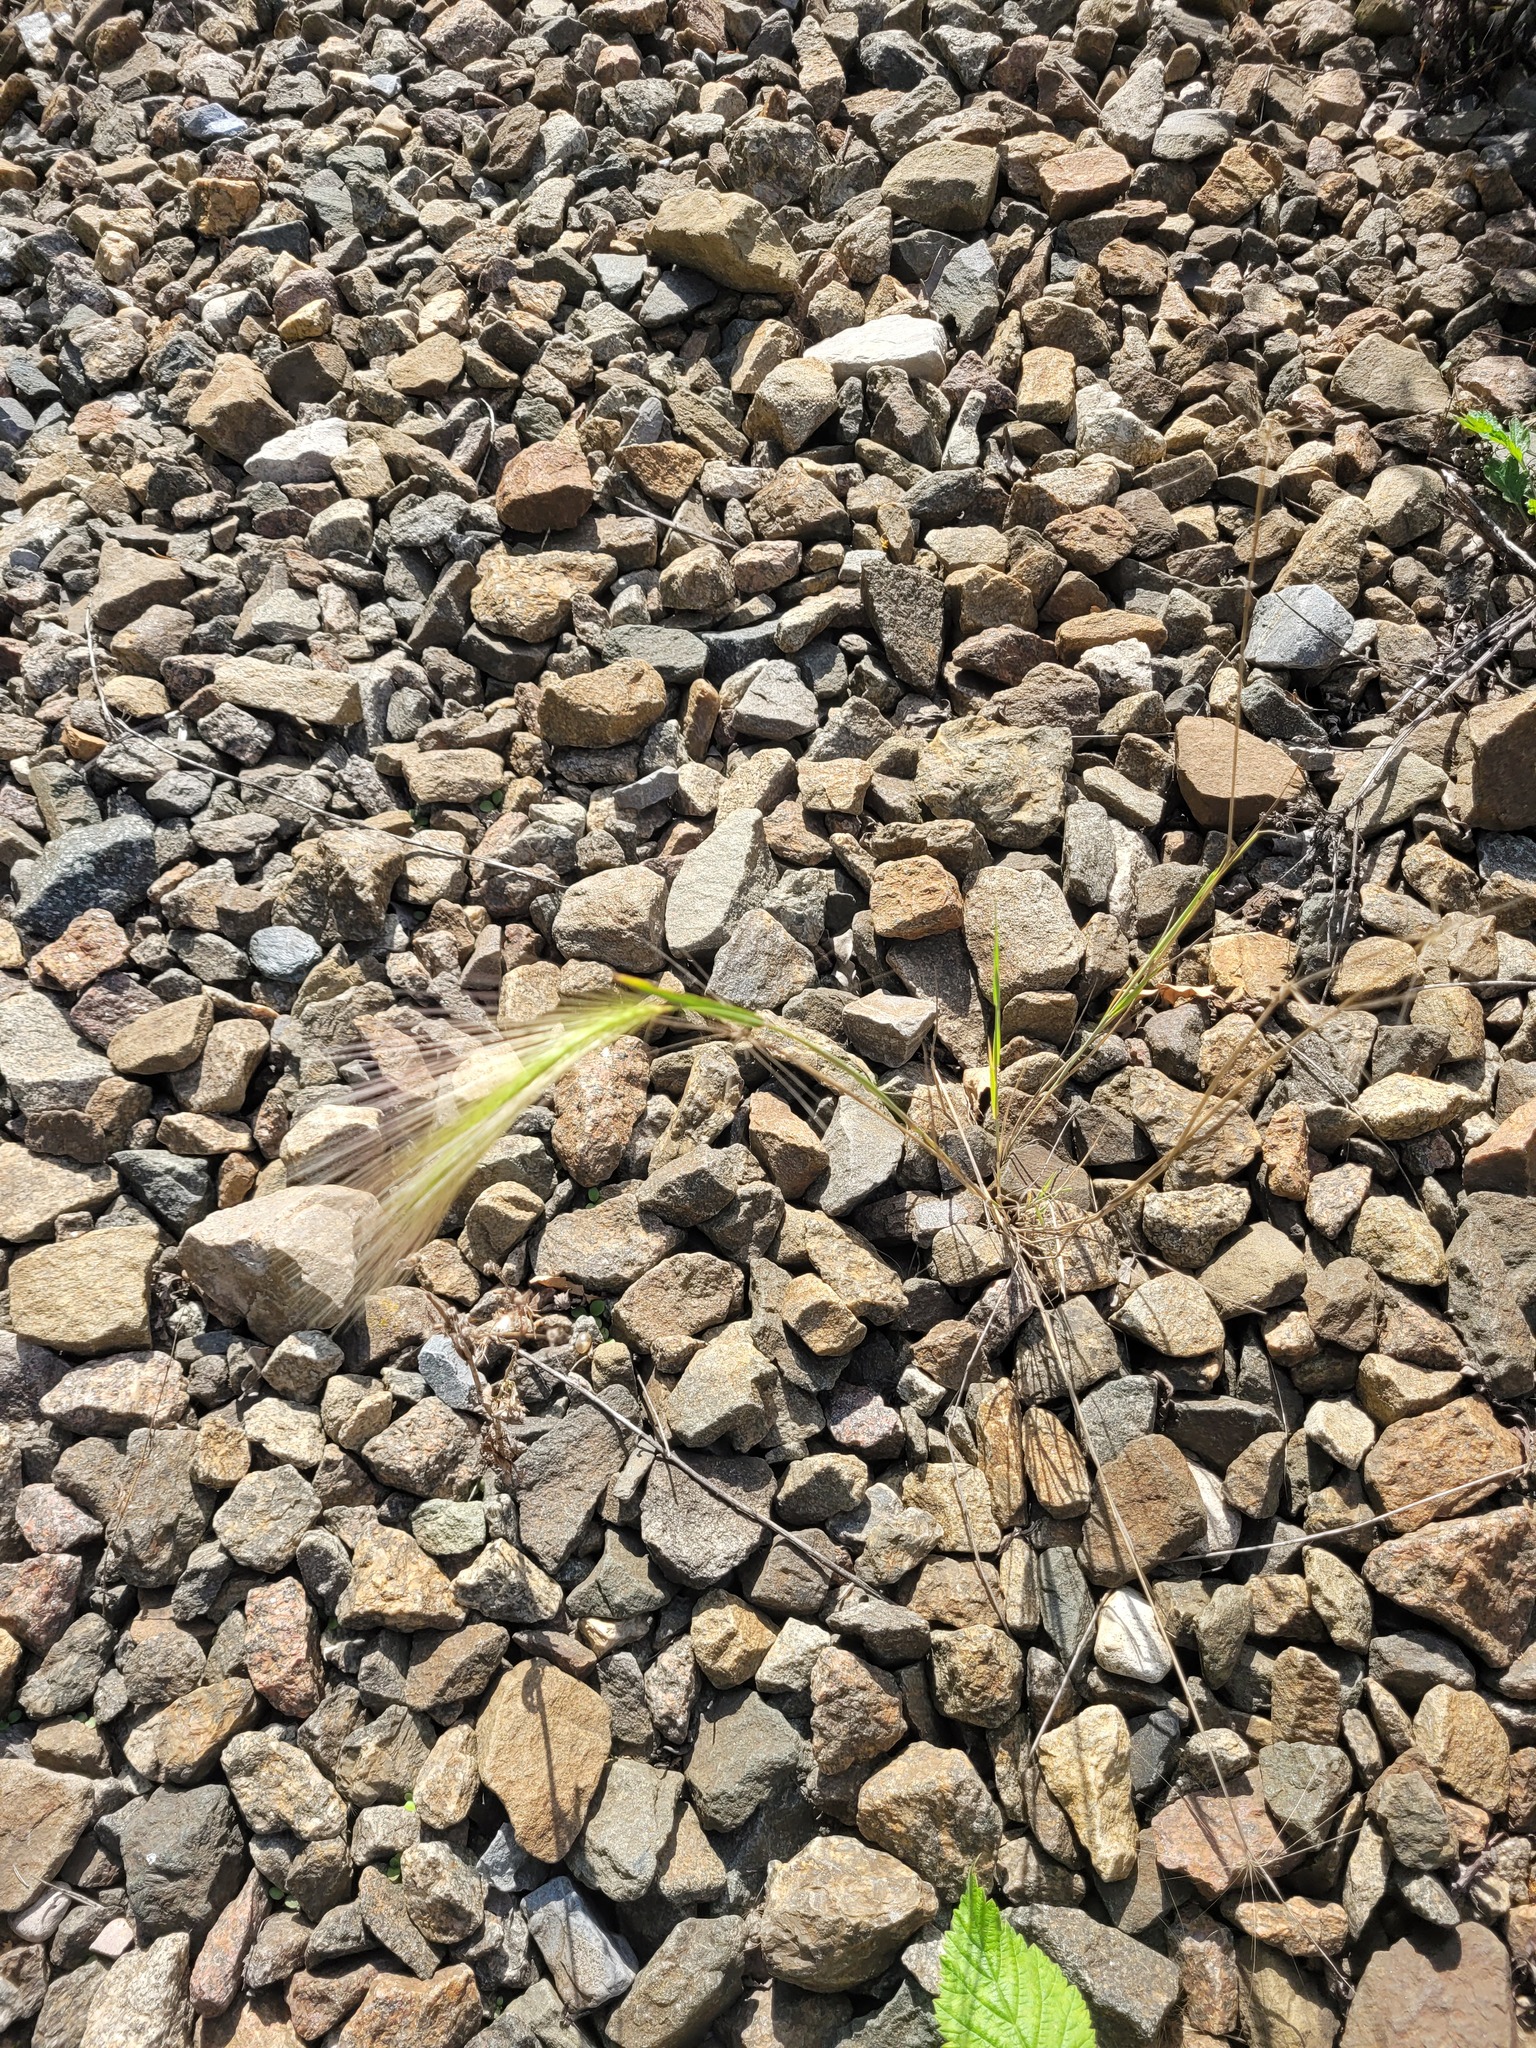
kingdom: Plantae
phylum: Tracheophyta
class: Liliopsida
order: Poales
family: Poaceae
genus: Hordeum
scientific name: Hordeum jubatum
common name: Foxtail barley
